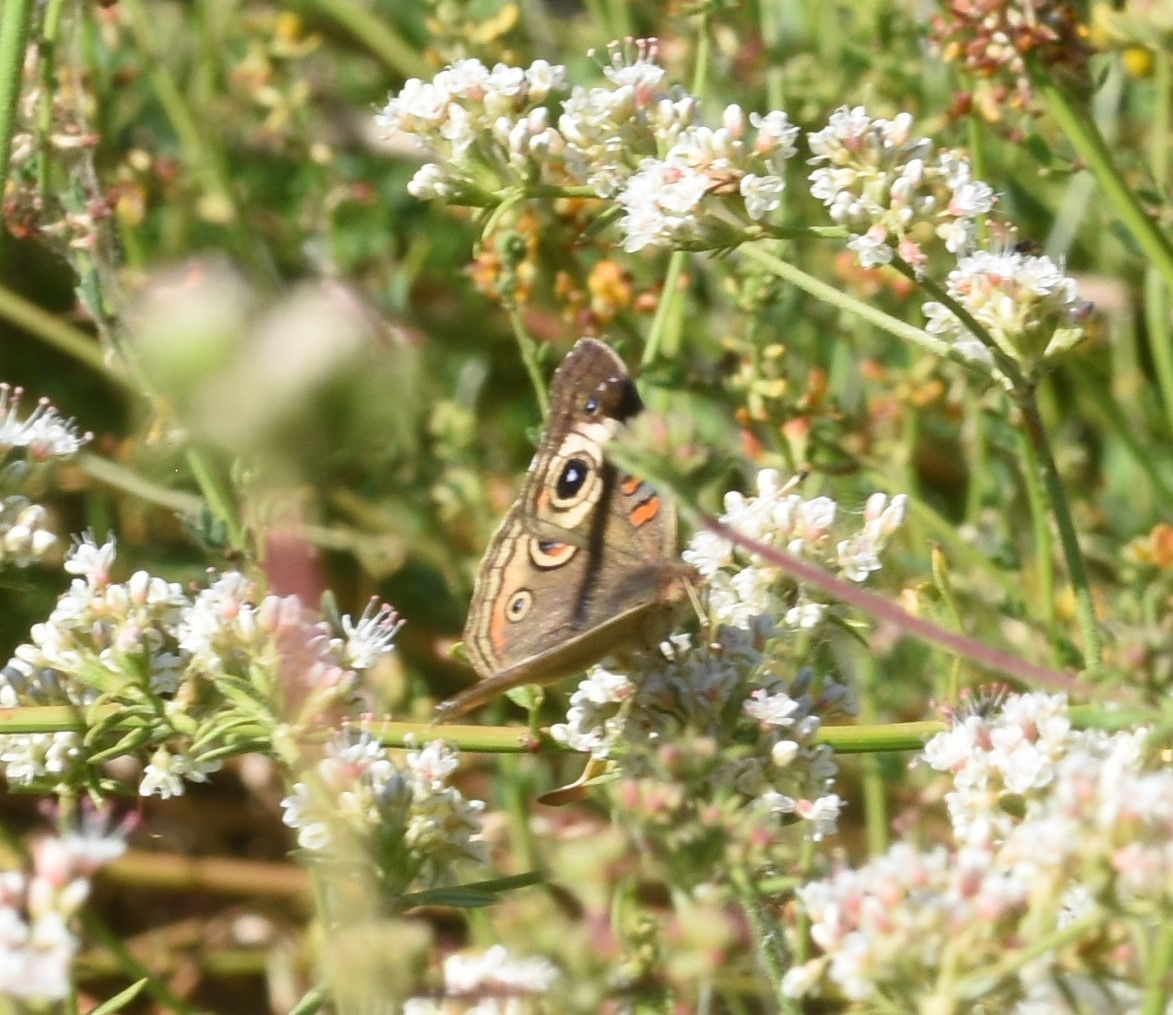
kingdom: Animalia
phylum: Arthropoda
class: Insecta
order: Lepidoptera
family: Nymphalidae
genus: Junonia
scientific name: Junonia grisea
